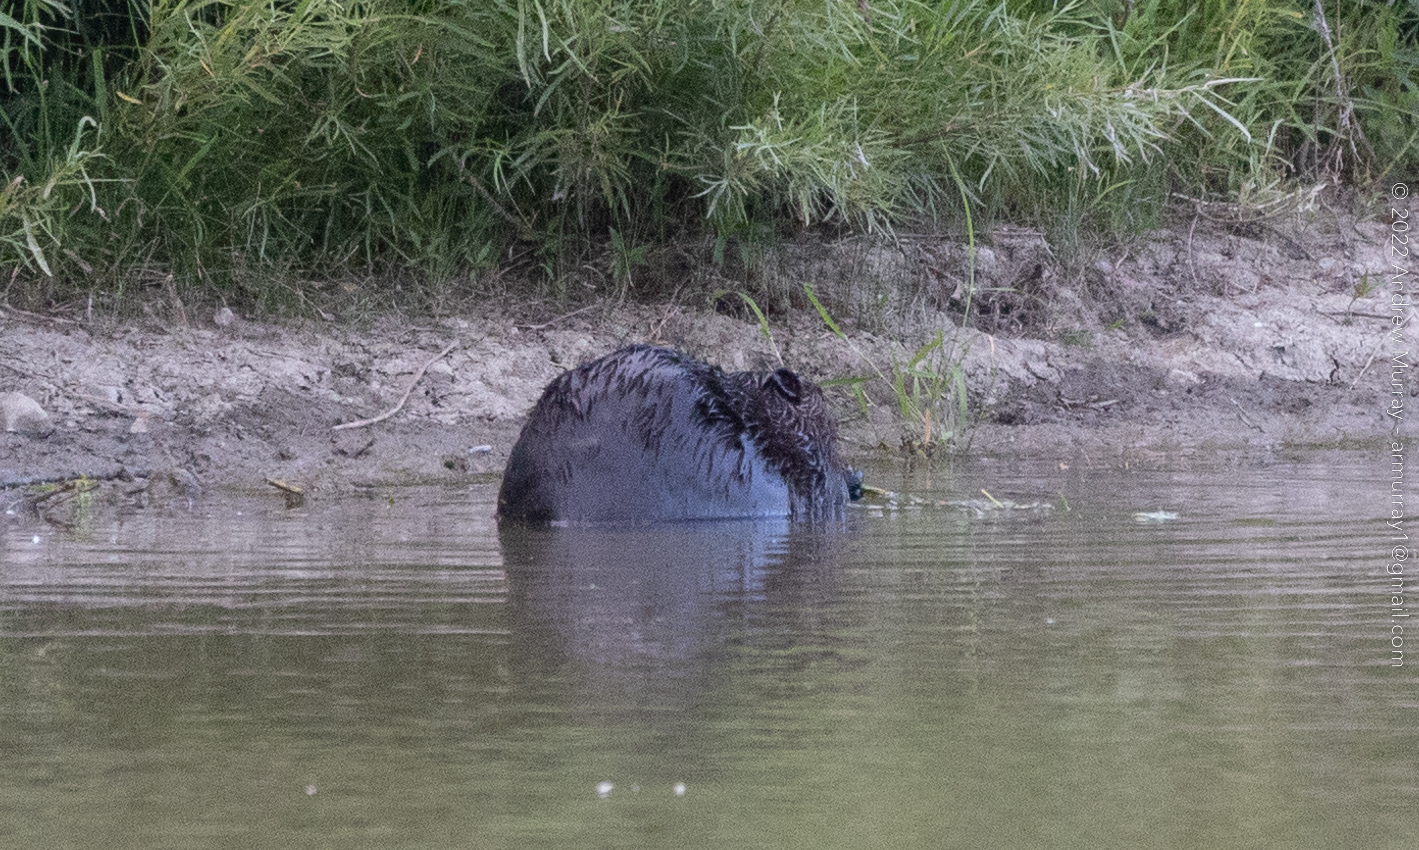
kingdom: Animalia
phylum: Chordata
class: Mammalia
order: Rodentia
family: Castoridae
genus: Castor
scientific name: Castor canadensis
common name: American beaver
